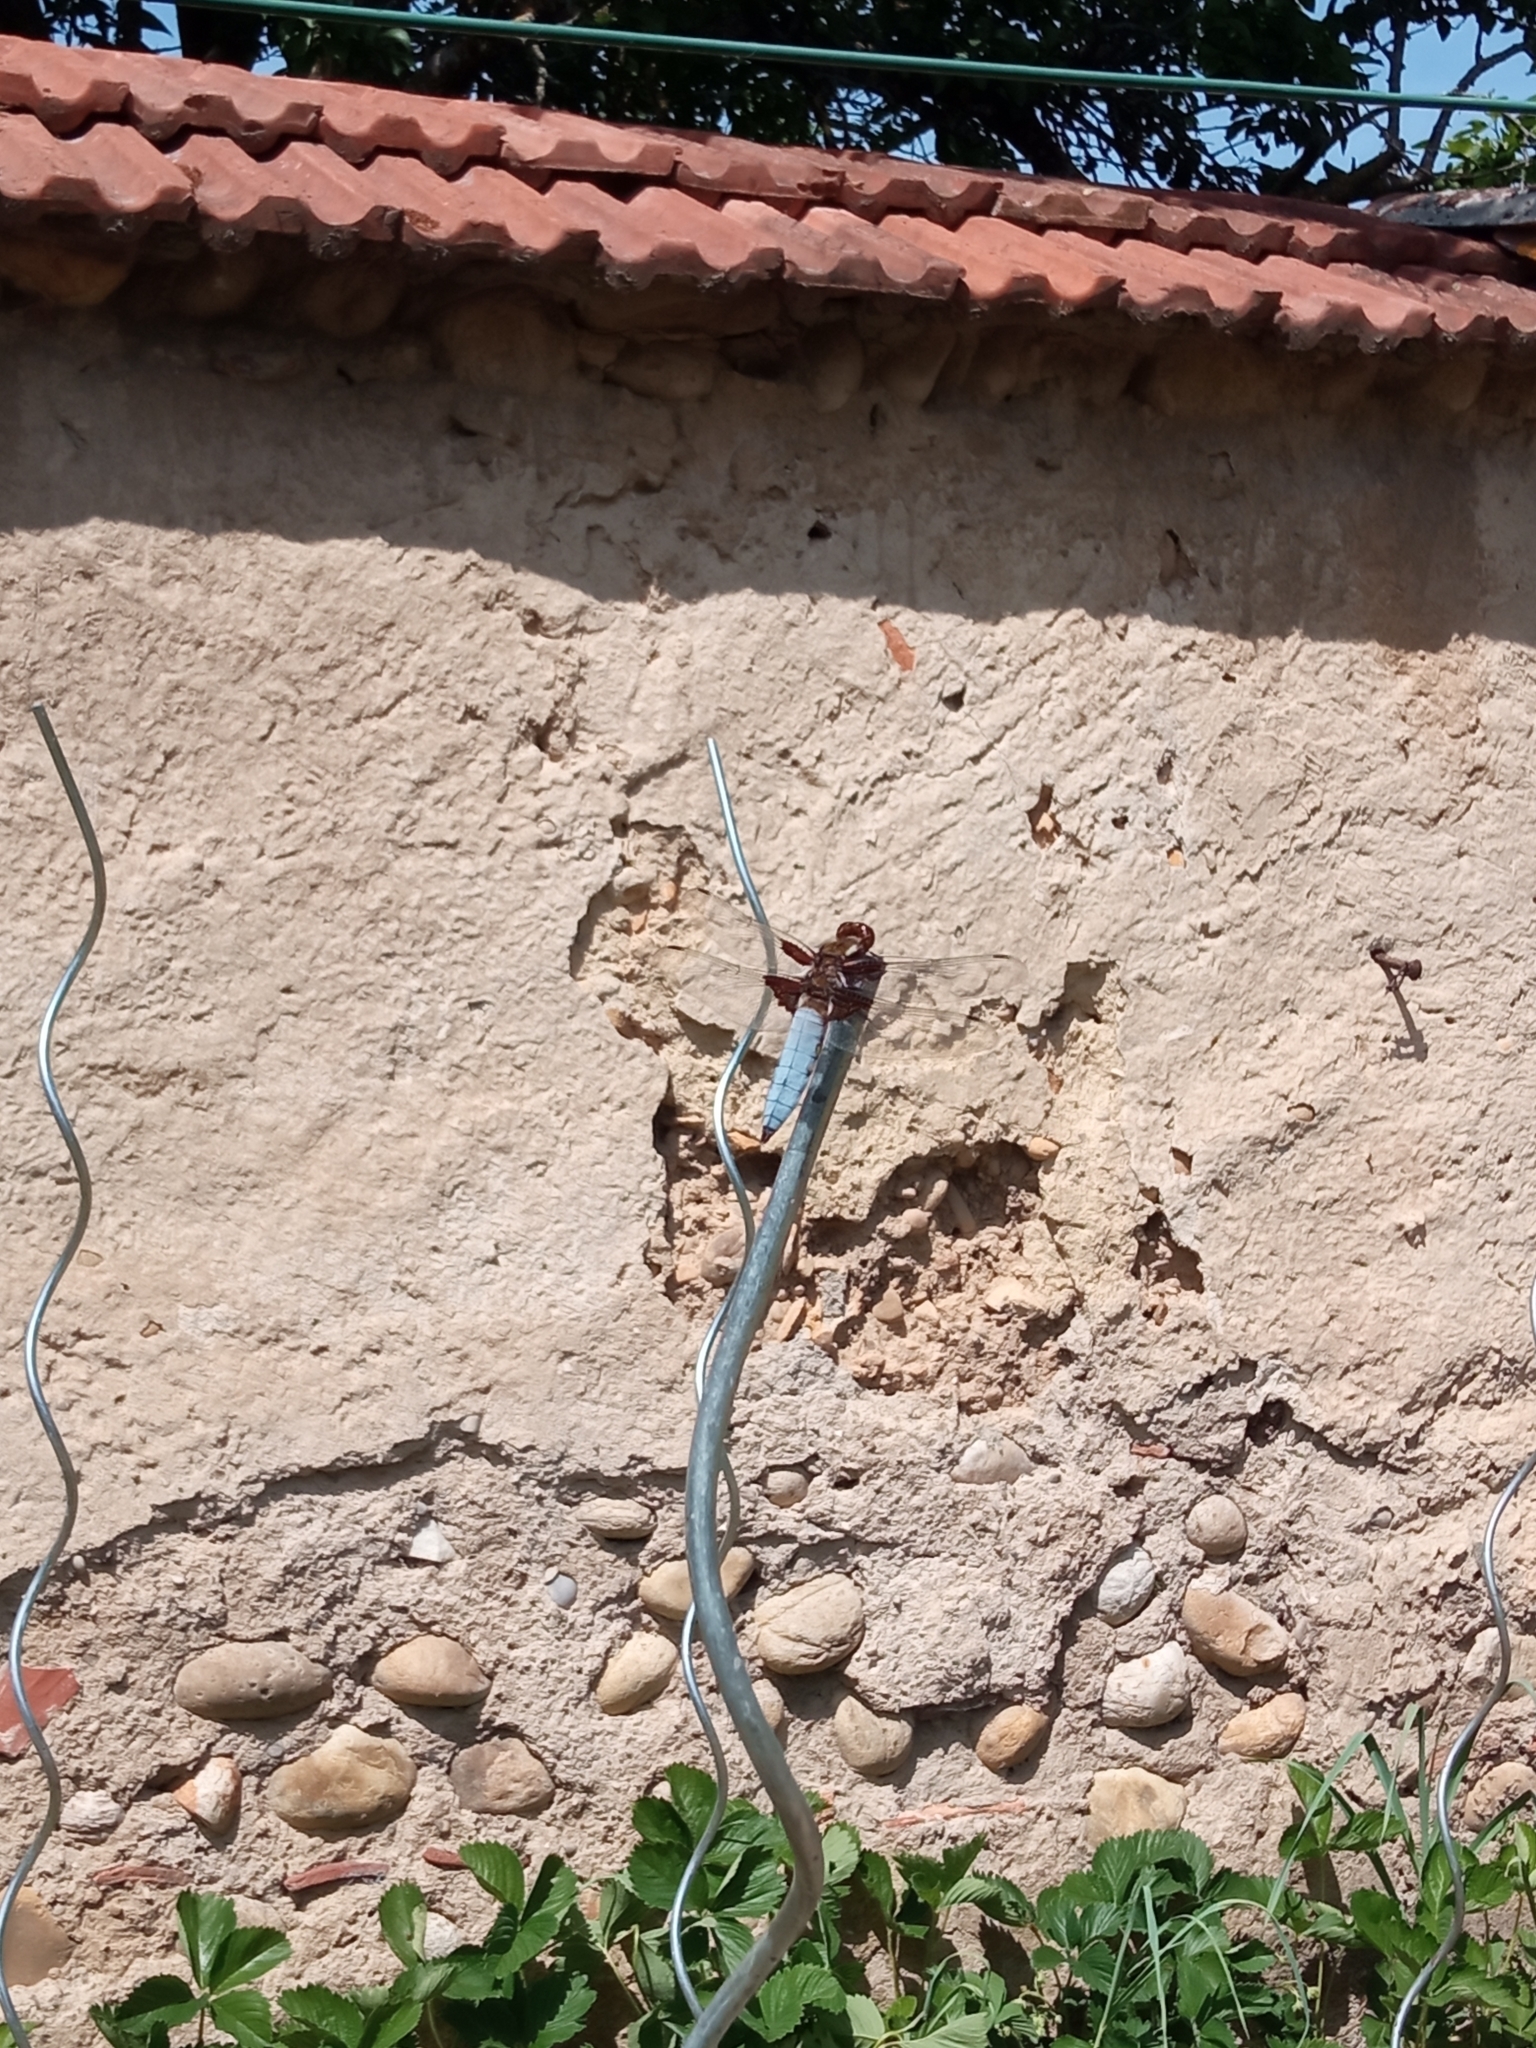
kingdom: Animalia
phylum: Arthropoda
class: Insecta
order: Odonata
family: Libellulidae
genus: Libellula
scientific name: Libellula depressa
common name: Broad-bodied chaser
